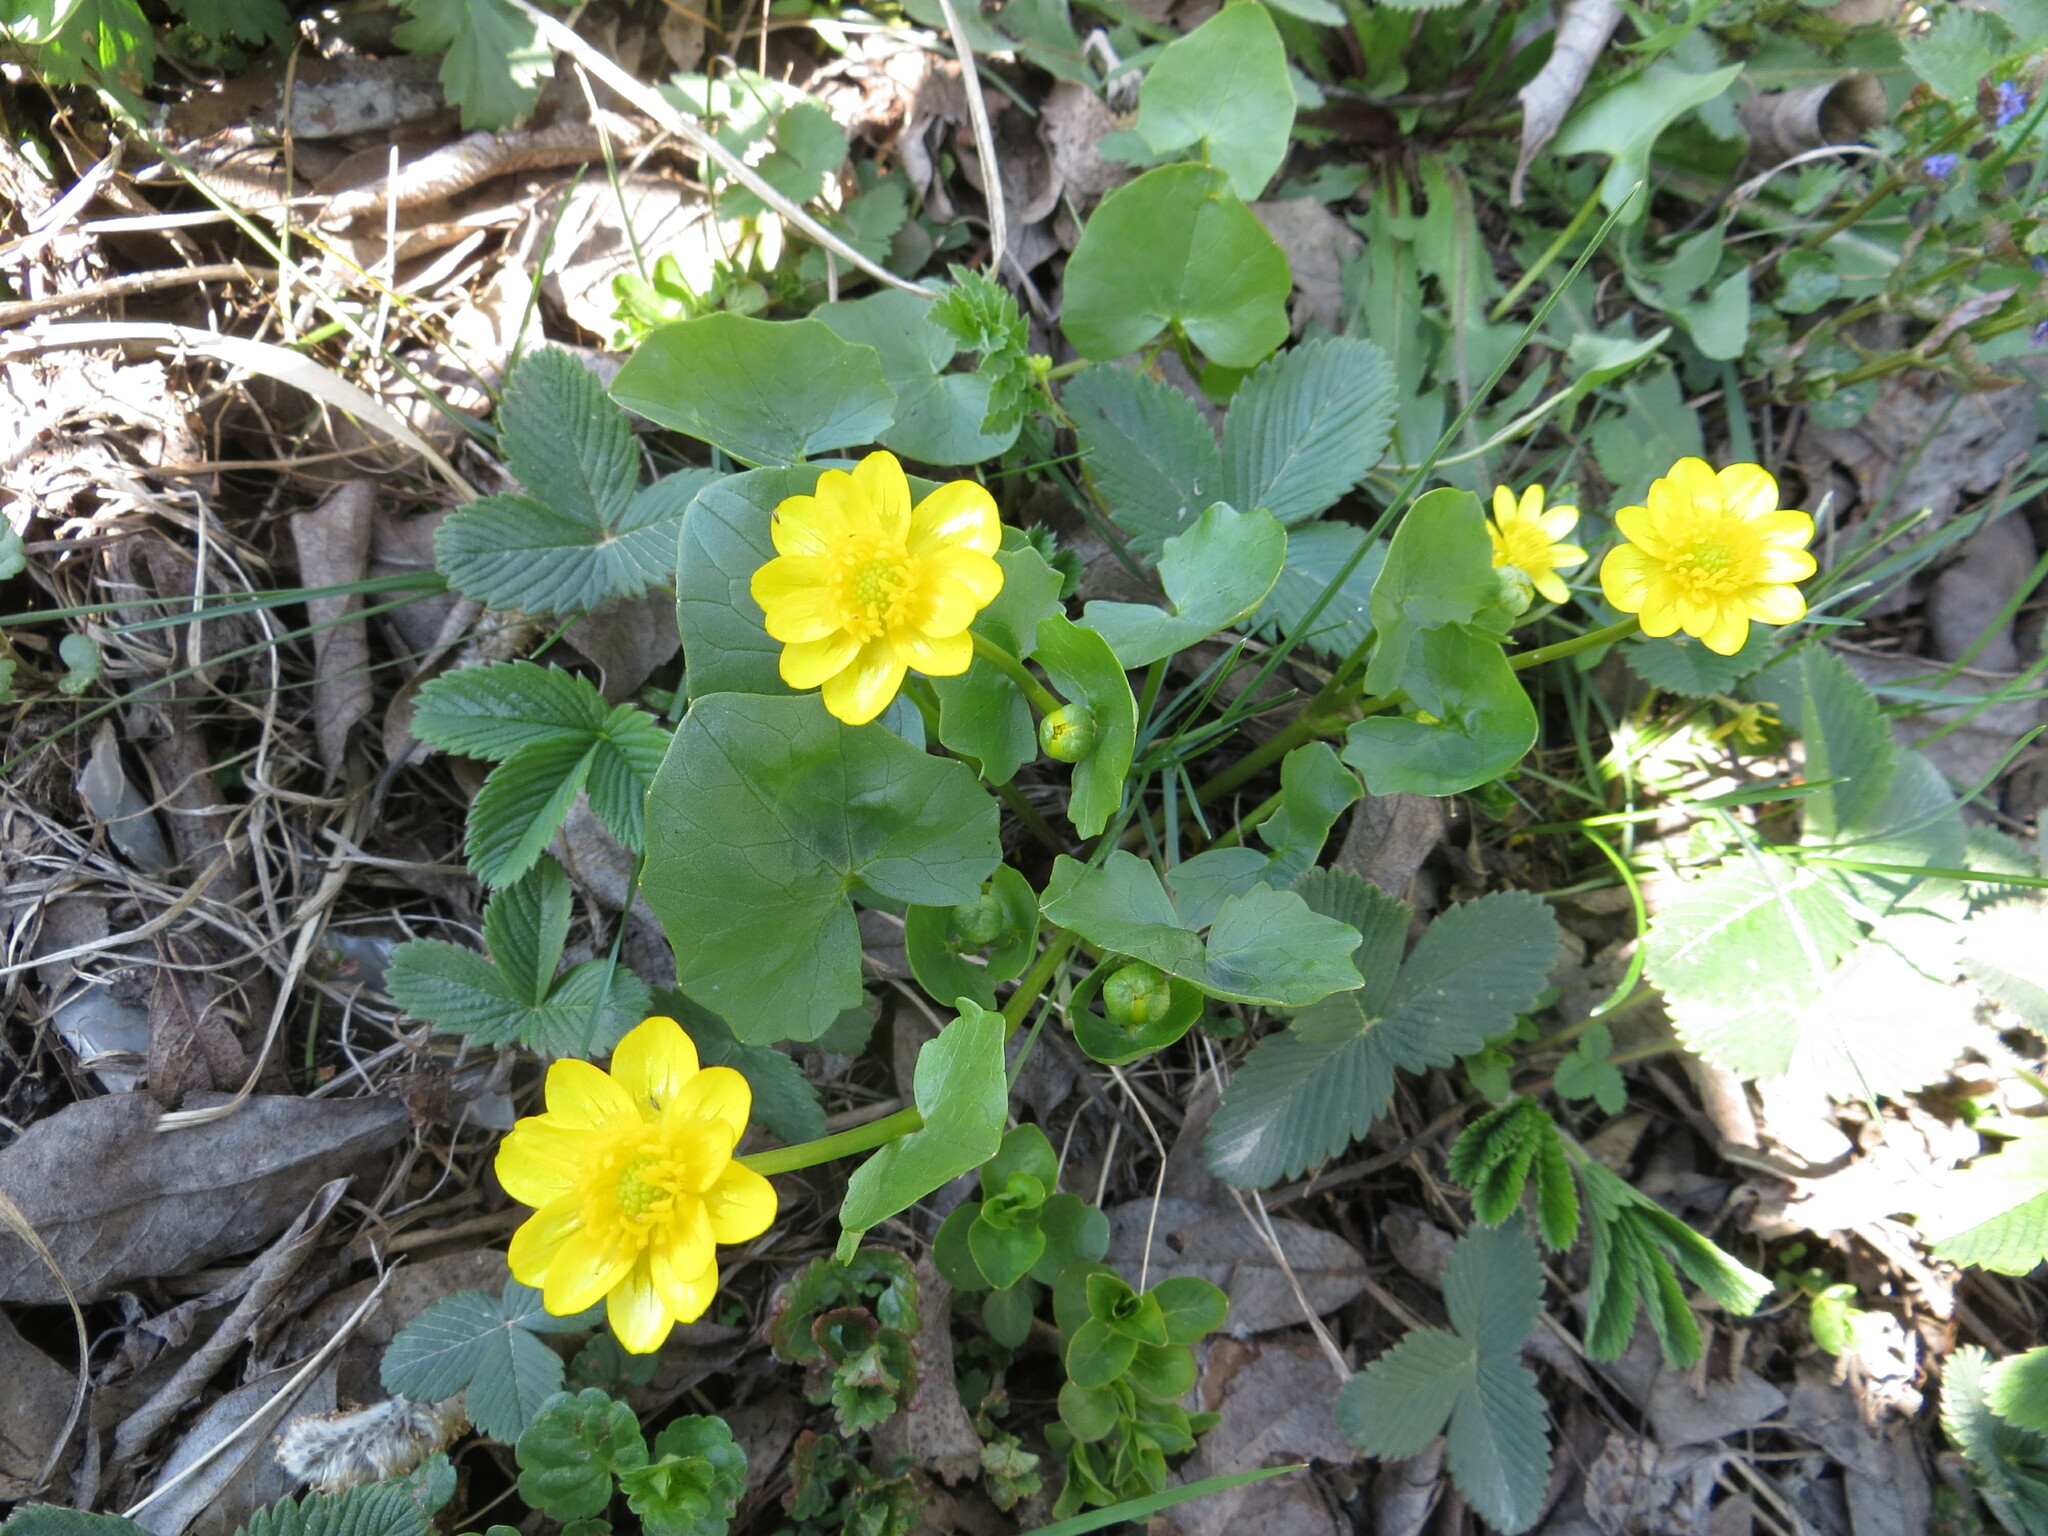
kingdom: Plantae
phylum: Tracheophyta
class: Magnoliopsida
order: Ranunculales
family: Ranunculaceae
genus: Ficaria
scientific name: Ficaria verna
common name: Lesser celandine
